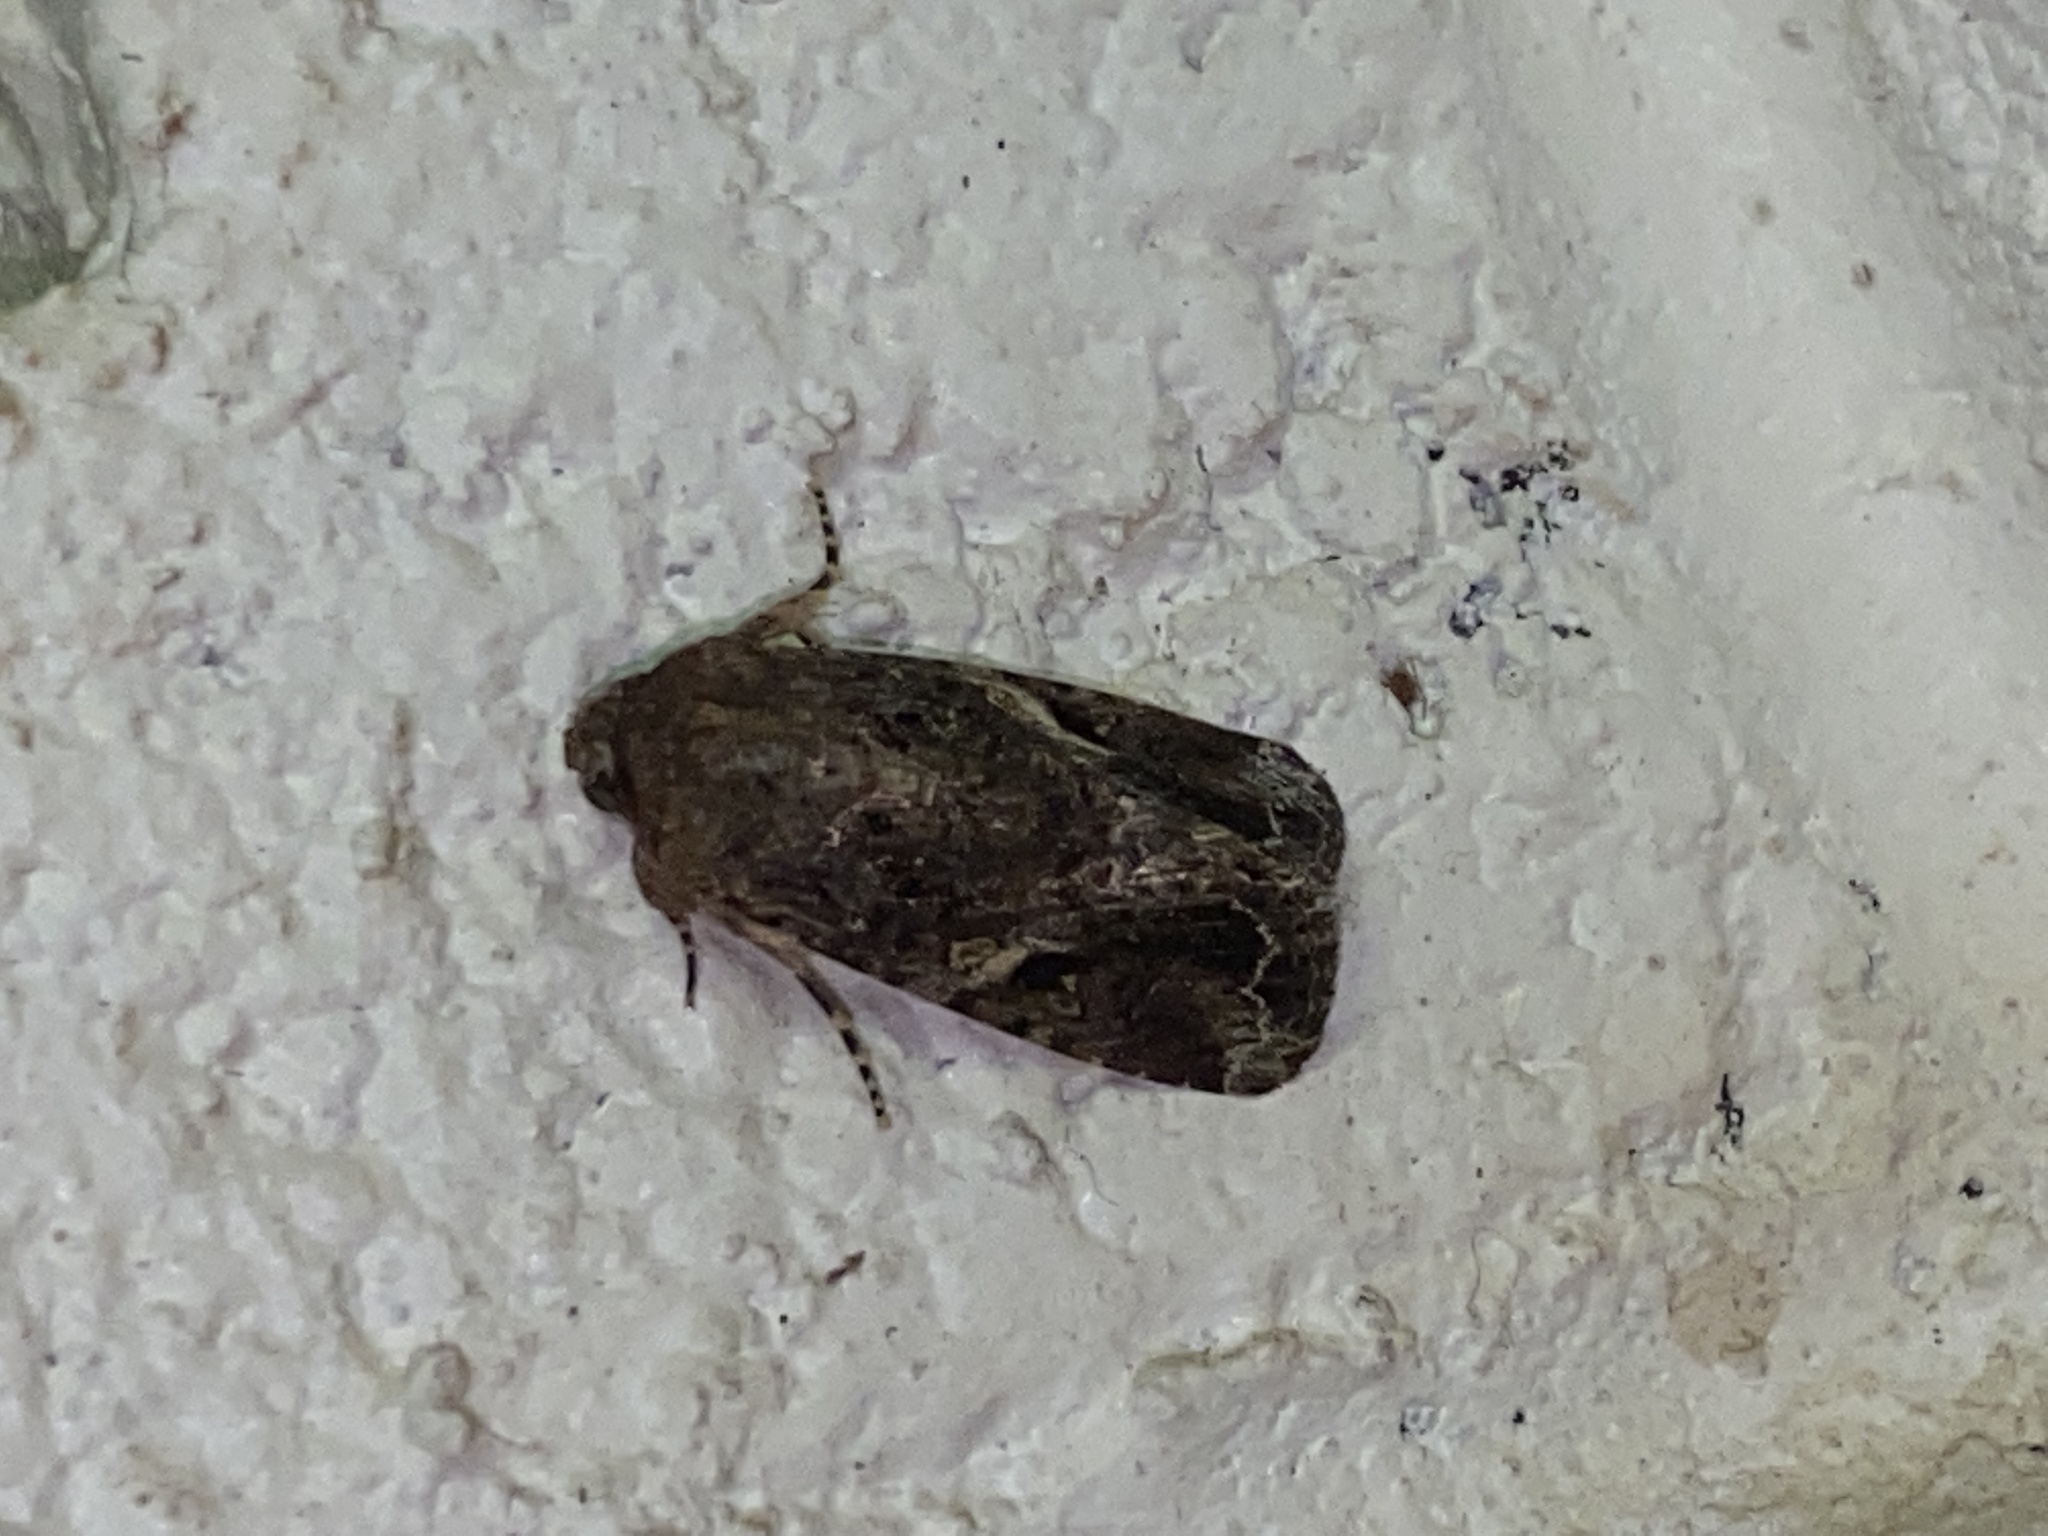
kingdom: Animalia
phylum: Arthropoda
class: Insecta
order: Lepidoptera
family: Noctuidae
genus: Spodoptera
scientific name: Spodoptera mauritia
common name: Lawn armyworm
